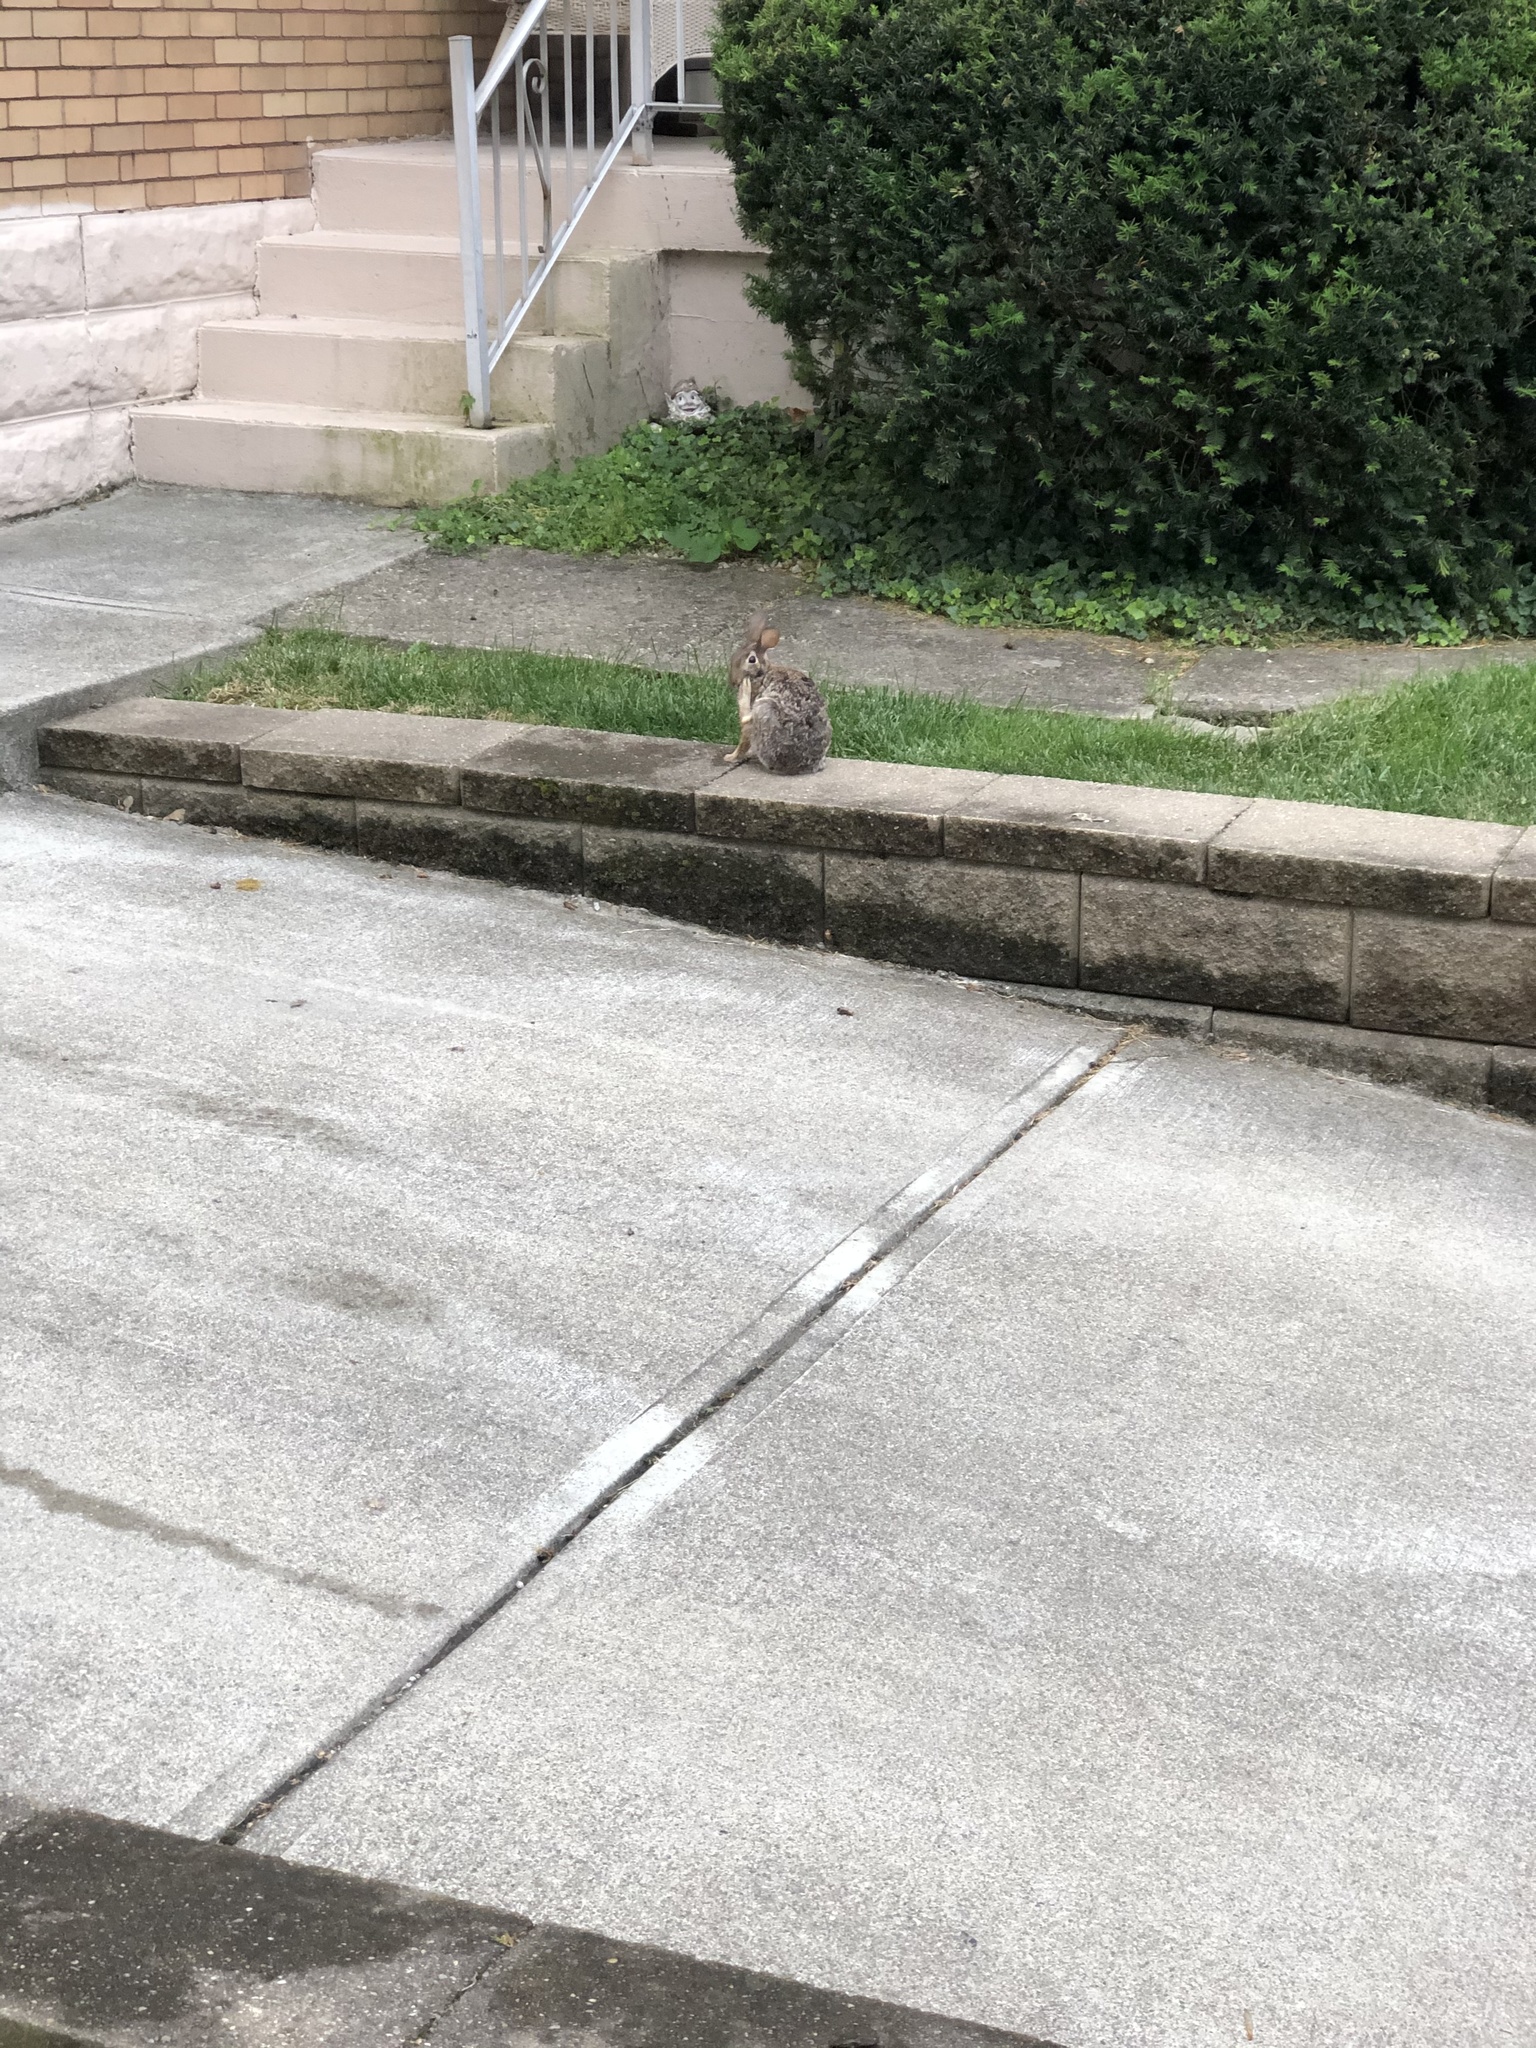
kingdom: Animalia
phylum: Chordata
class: Mammalia
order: Lagomorpha
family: Leporidae
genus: Sylvilagus
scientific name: Sylvilagus floridanus
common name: Eastern cottontail
